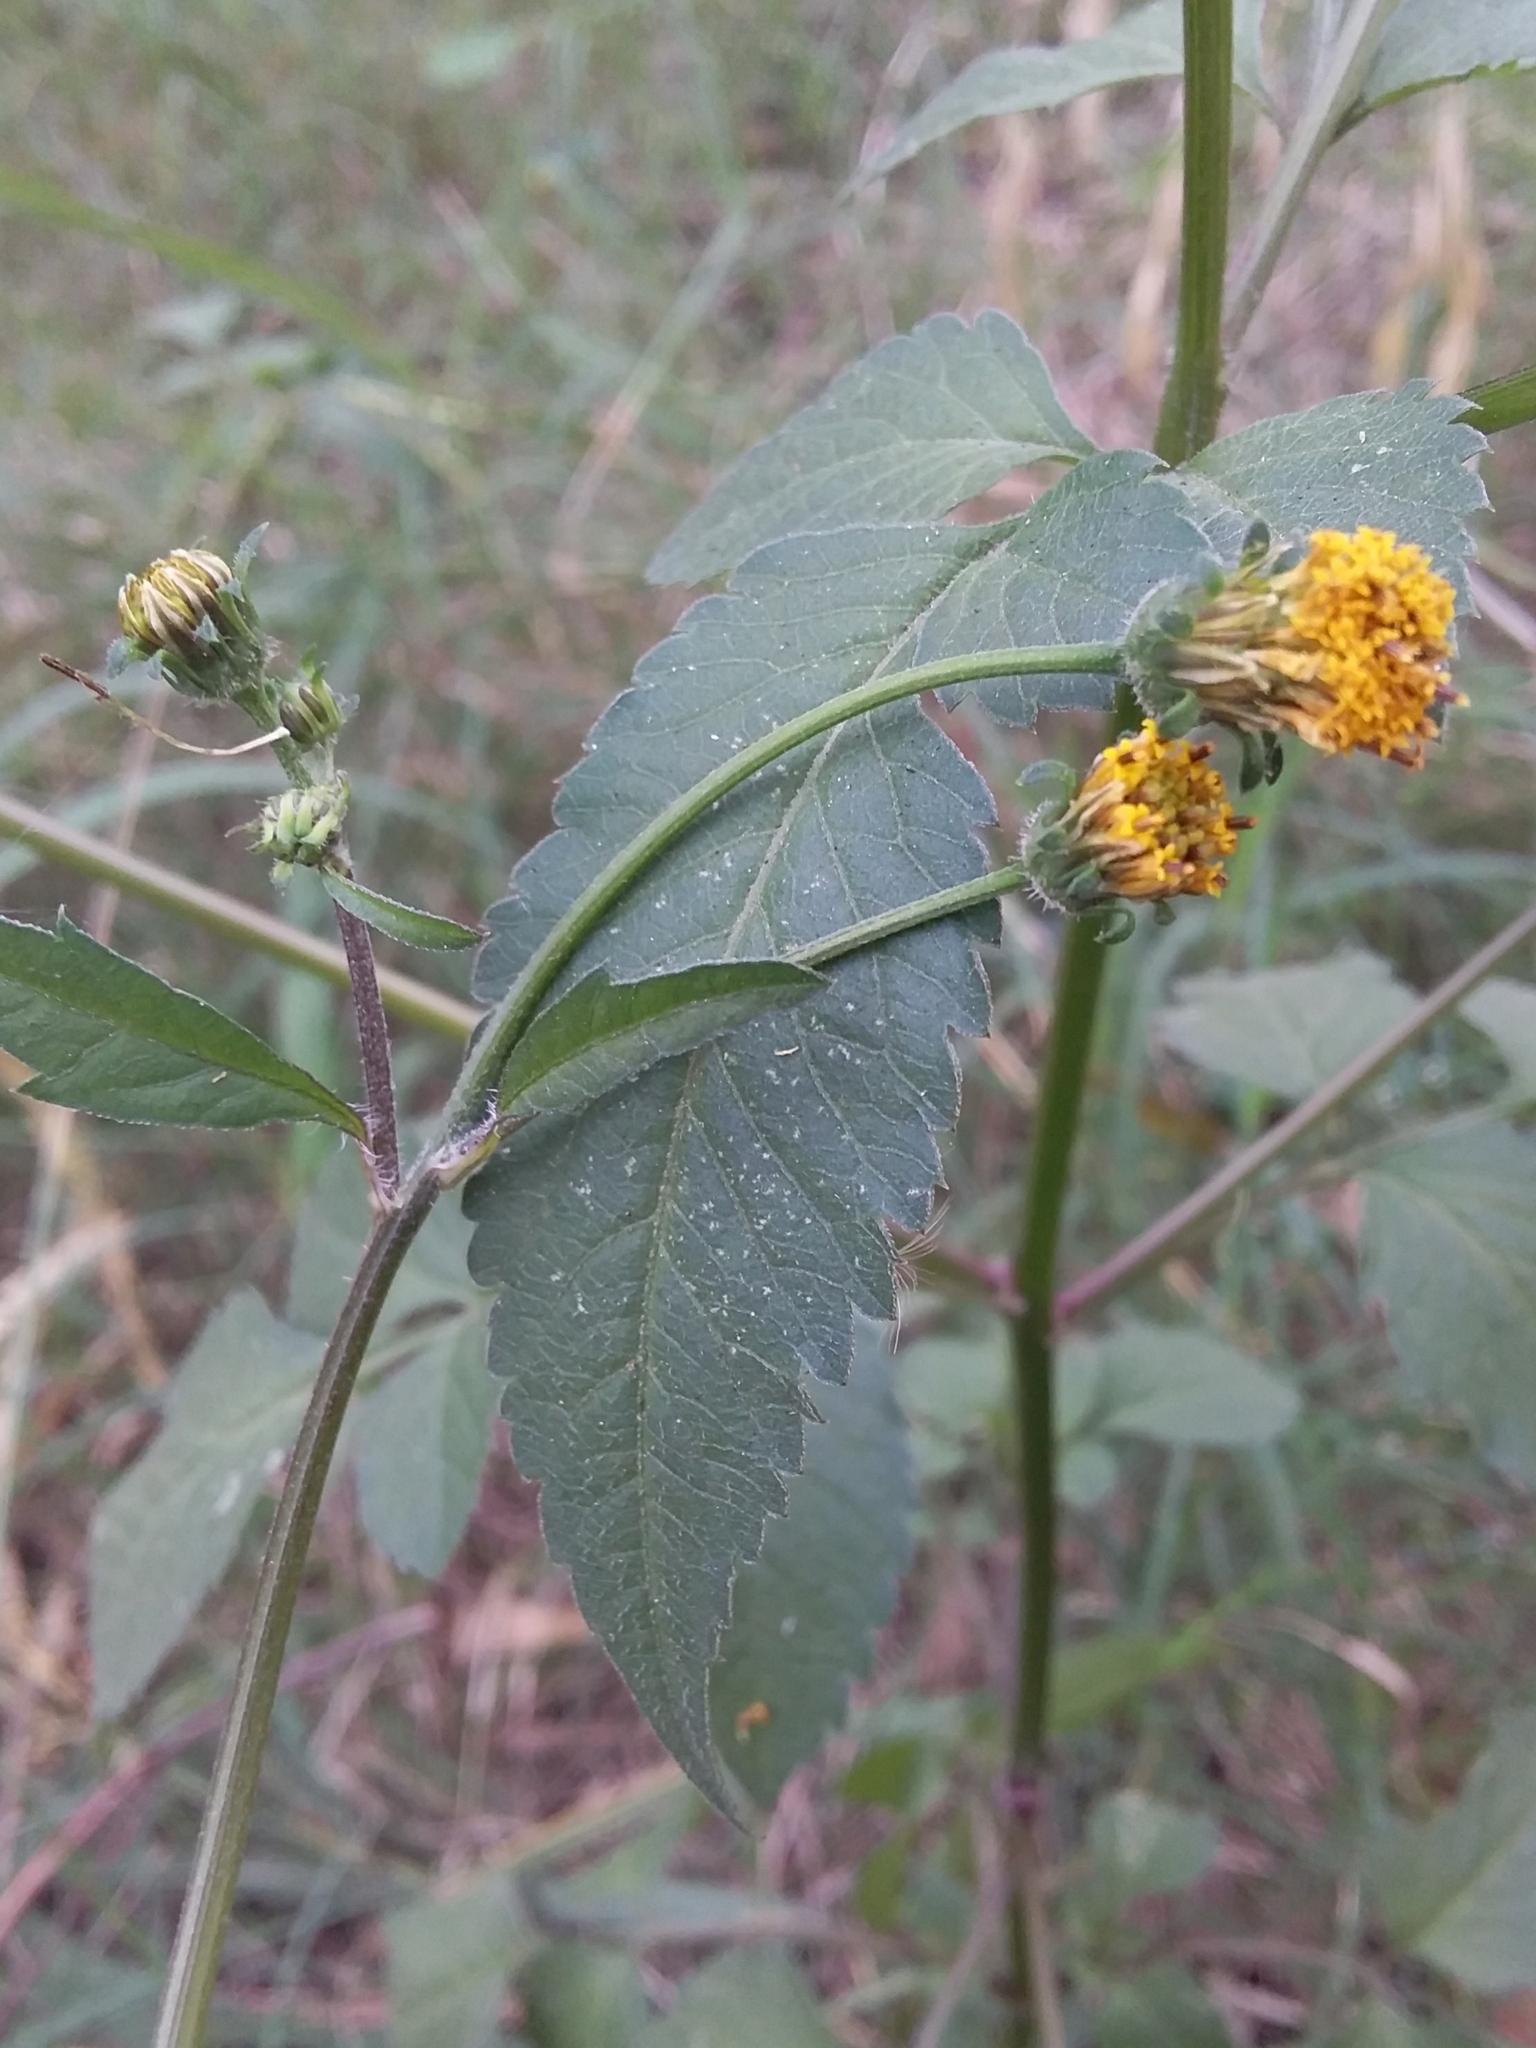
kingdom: Plantae
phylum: Tracheophyta
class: Magnoliopsida
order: Asterales
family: Asteraceae
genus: Bidens
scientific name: Bidens pilosa
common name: Black-jack
